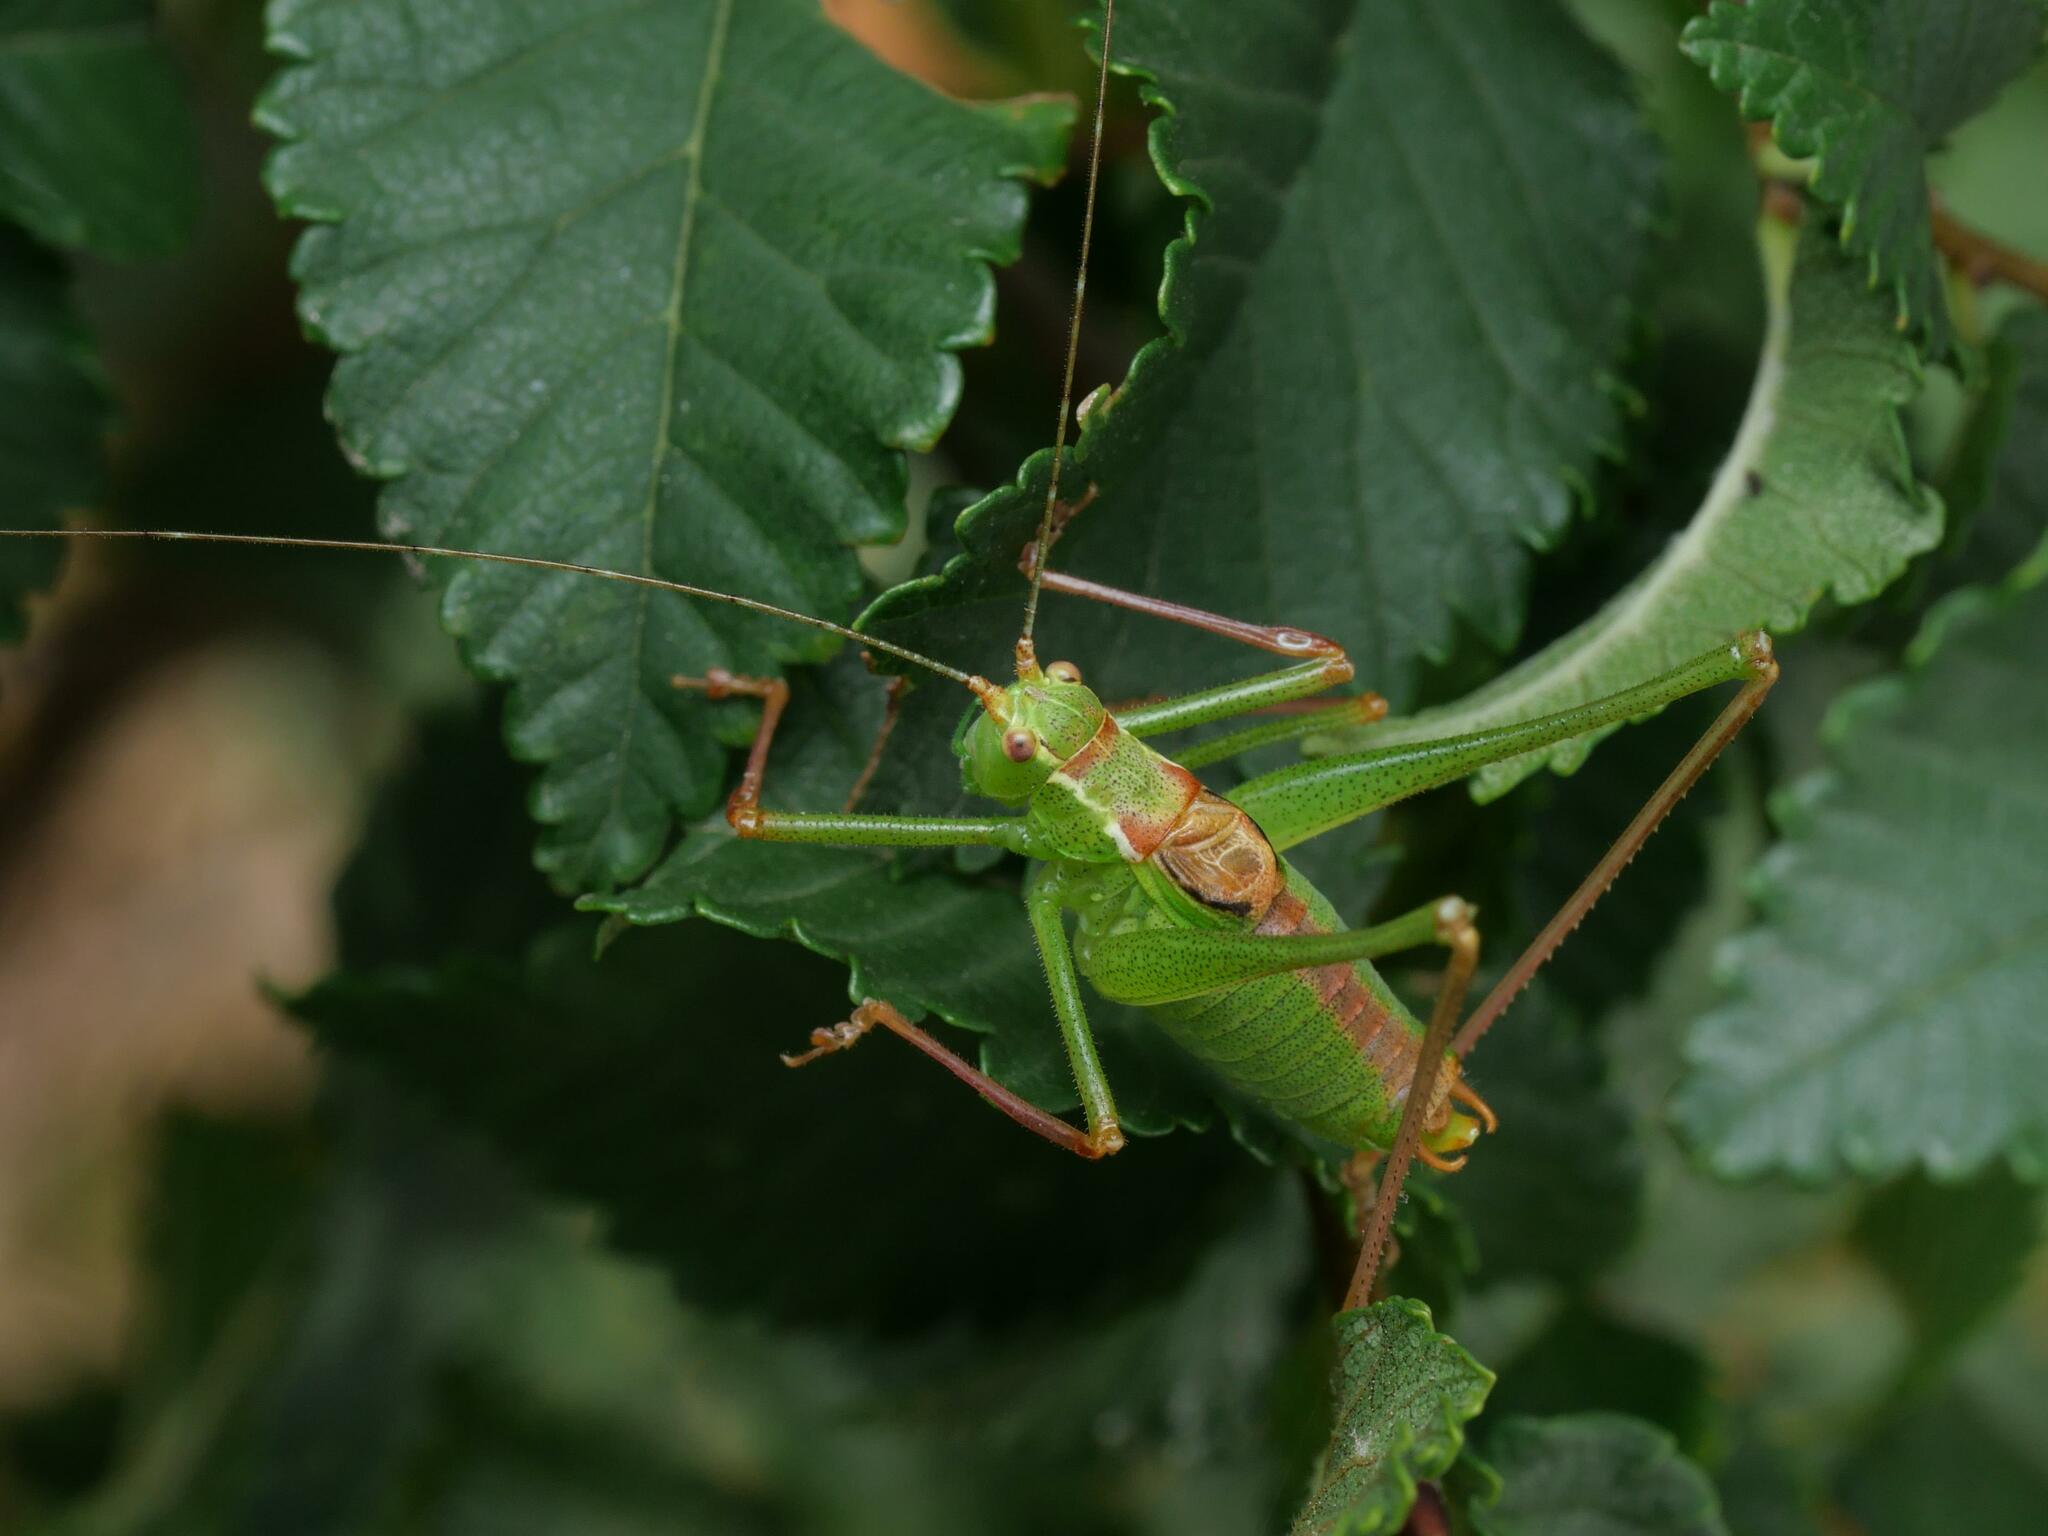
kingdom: Animalia
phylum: Arthropoda
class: Insecta
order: Orthoptera
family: Tettigoniidae
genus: Leptophyes
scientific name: Leptophyes punctatissima
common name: Speckled bush-cricket
